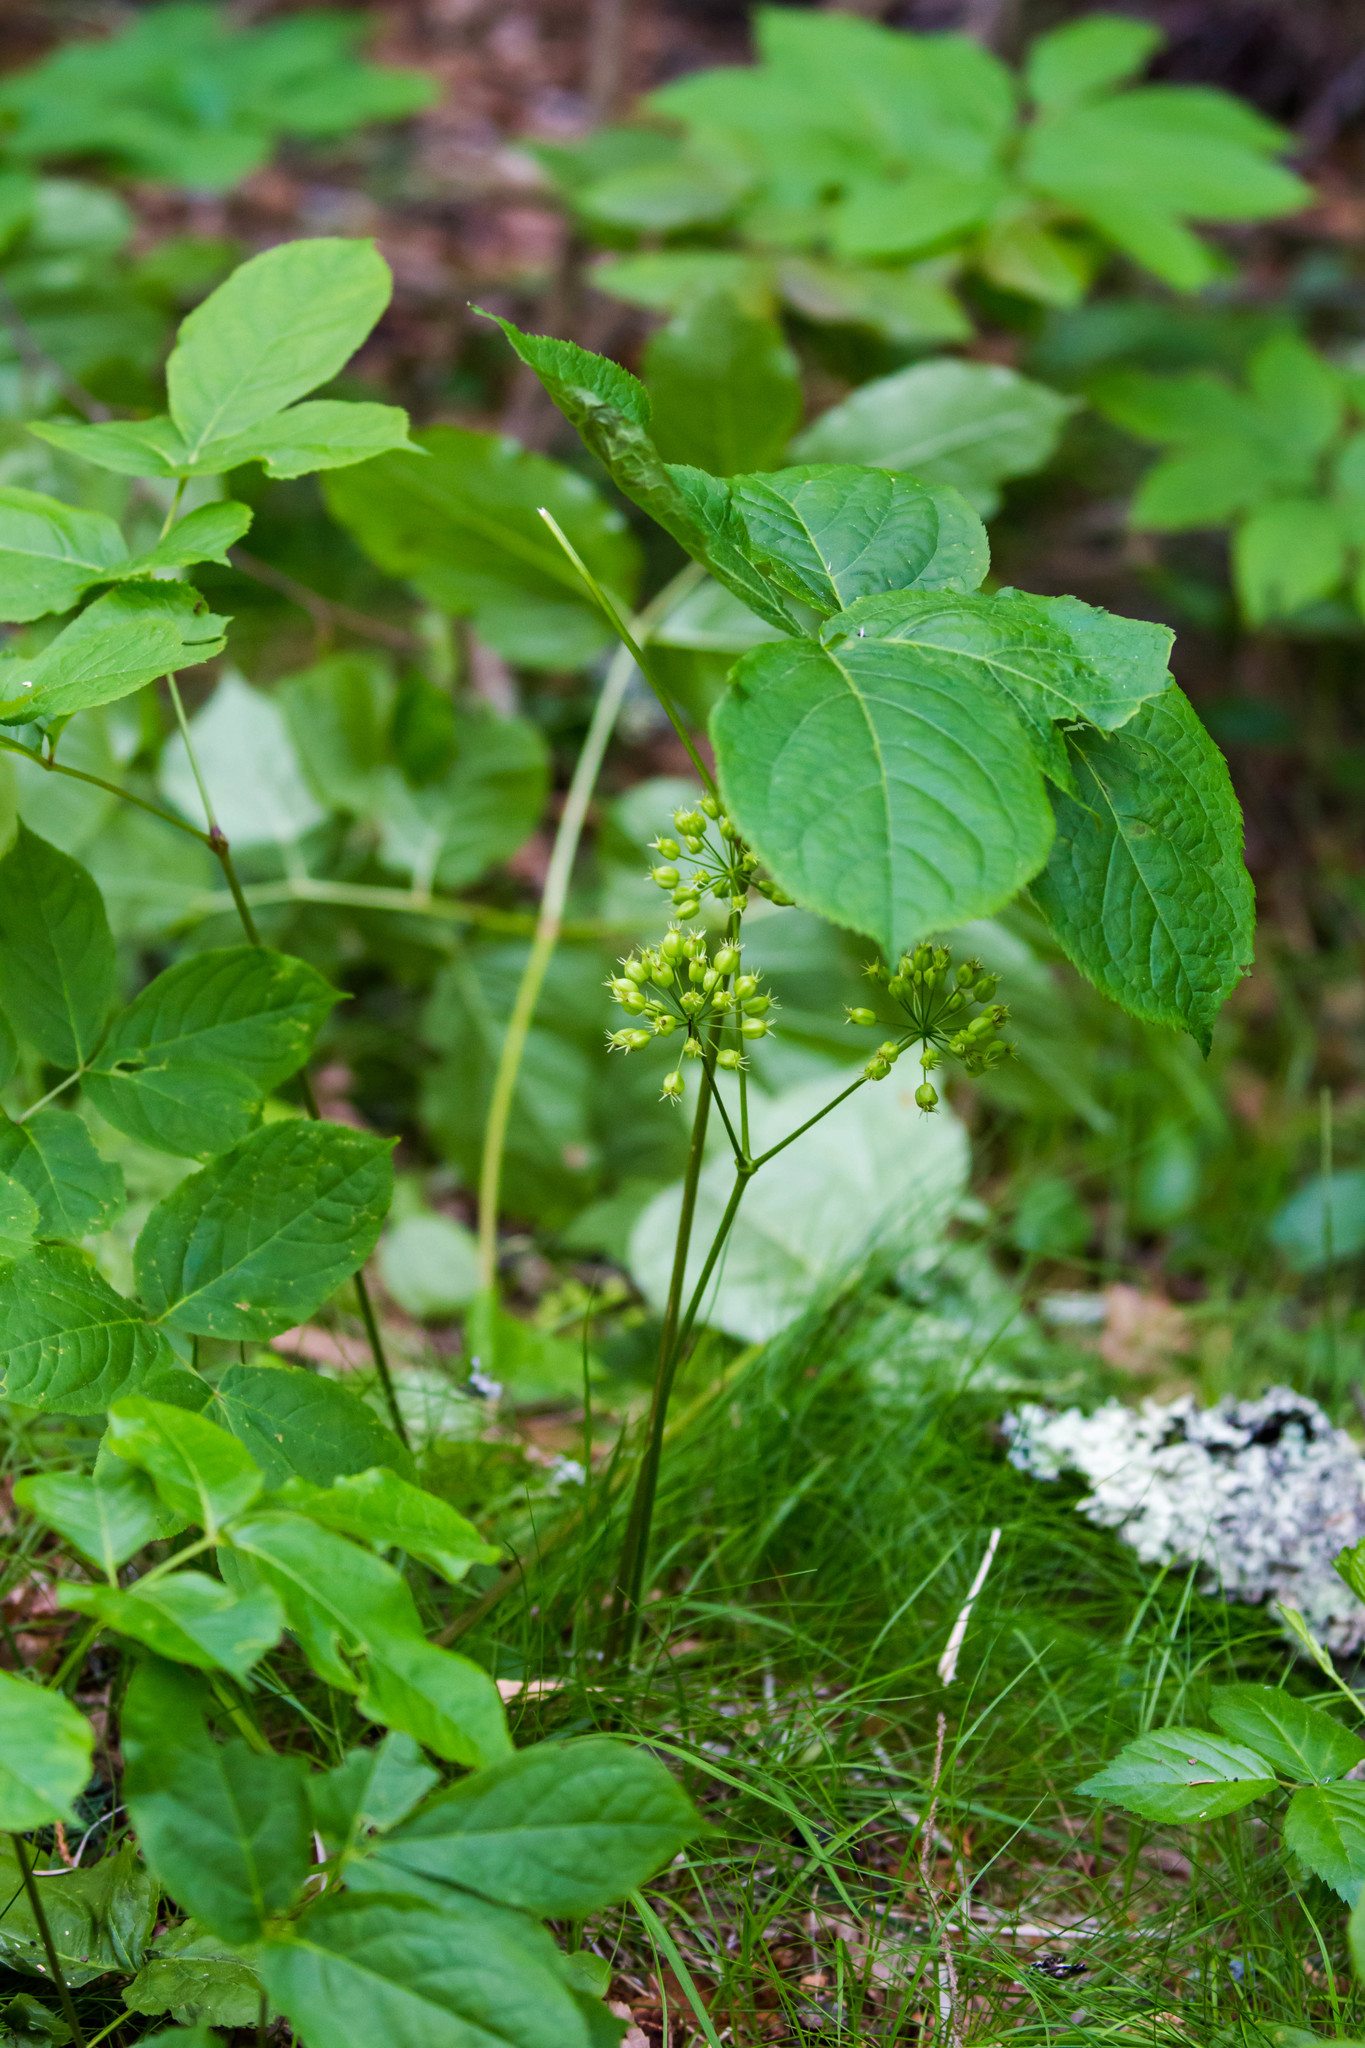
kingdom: Plantae
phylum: Tracheophyta
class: Magnoliopsida
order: Apiales
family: Araliaceae
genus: Aralia
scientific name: Aralia nudicaulis
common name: Wild sarsaparilla
